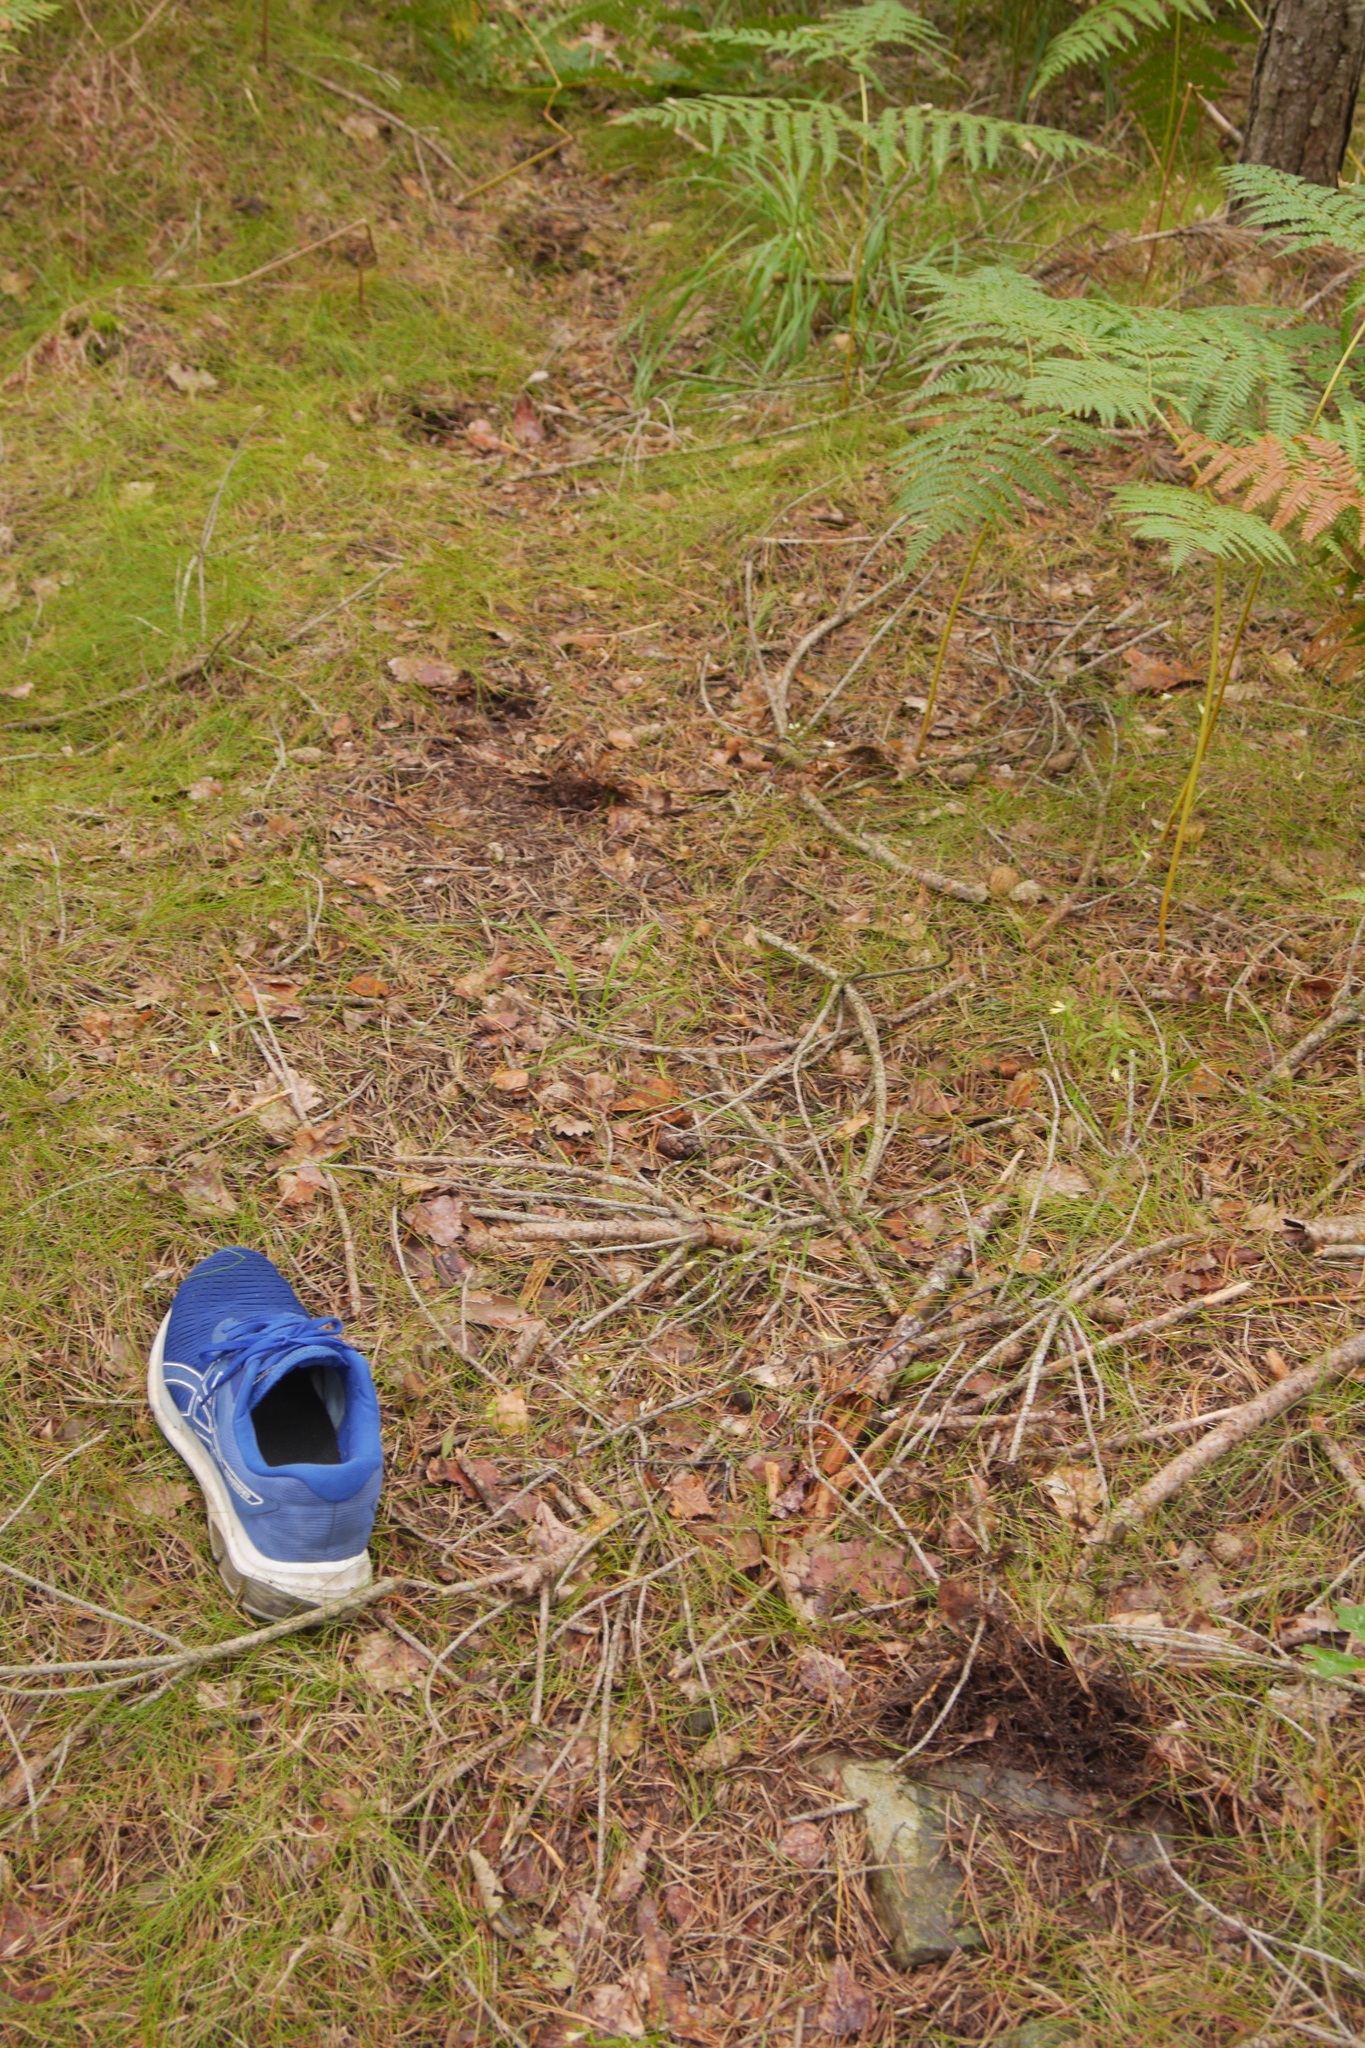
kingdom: Animalia
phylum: Chordata
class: Mammalia
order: Artiodactyla
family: Cervidae
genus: Alces
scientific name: Alces alces
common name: Moose
